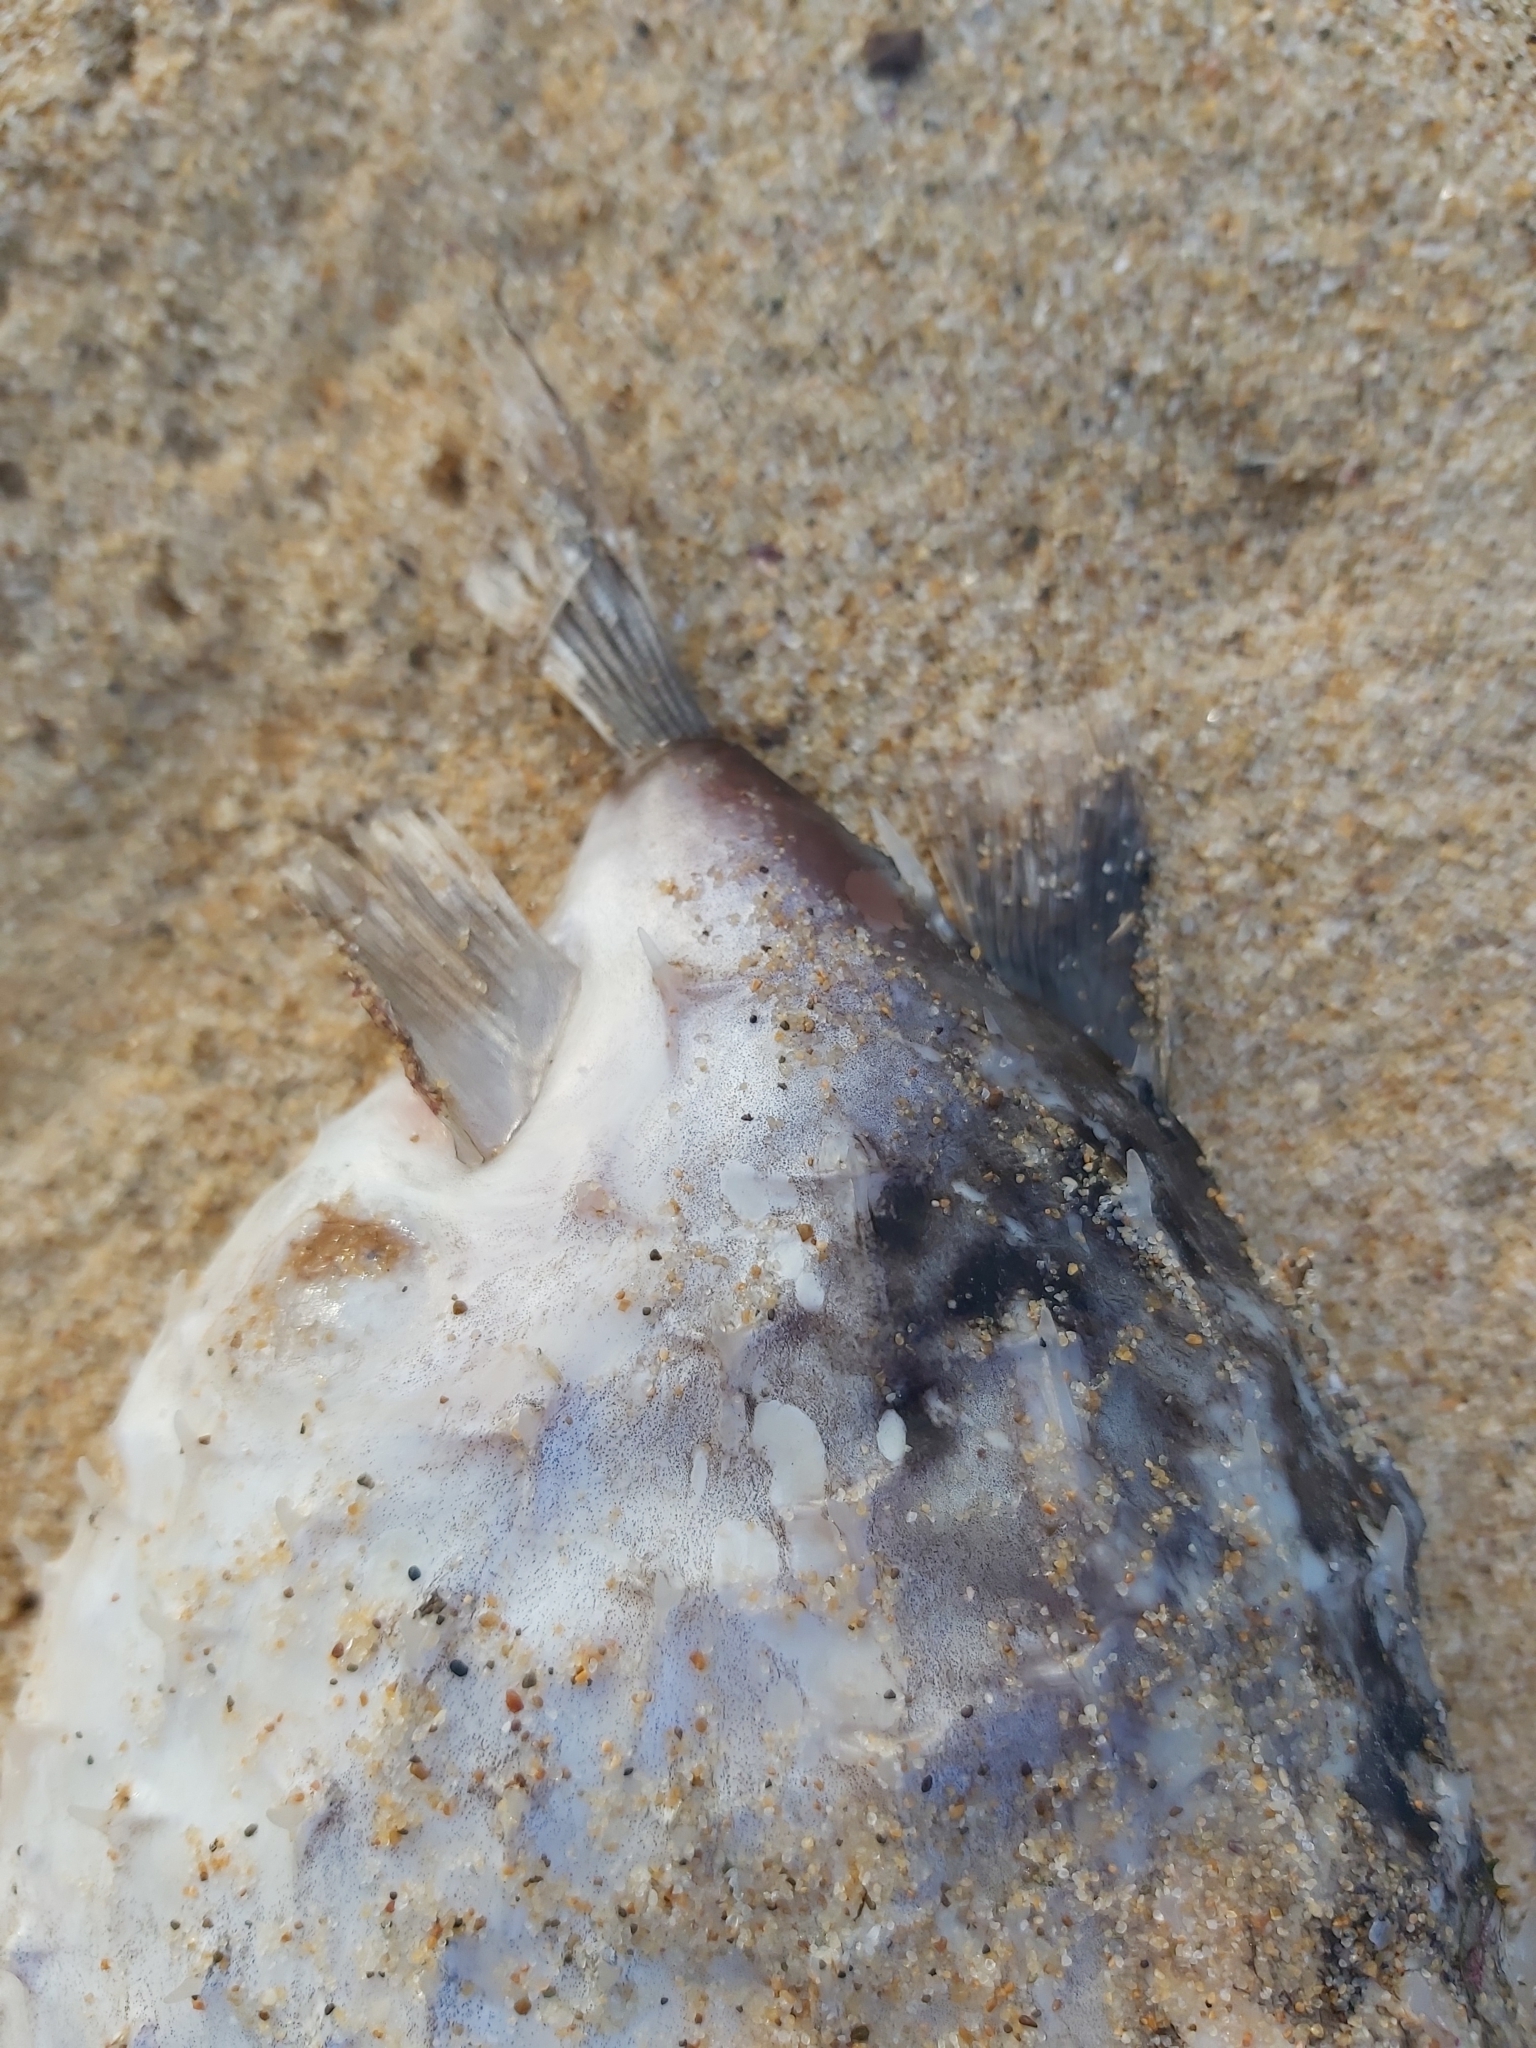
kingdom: Animalia
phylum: Chordata
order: Tetraodontiformes
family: Diodontidae
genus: Allomycterus
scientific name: Allomycterus pilatus
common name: No common name
